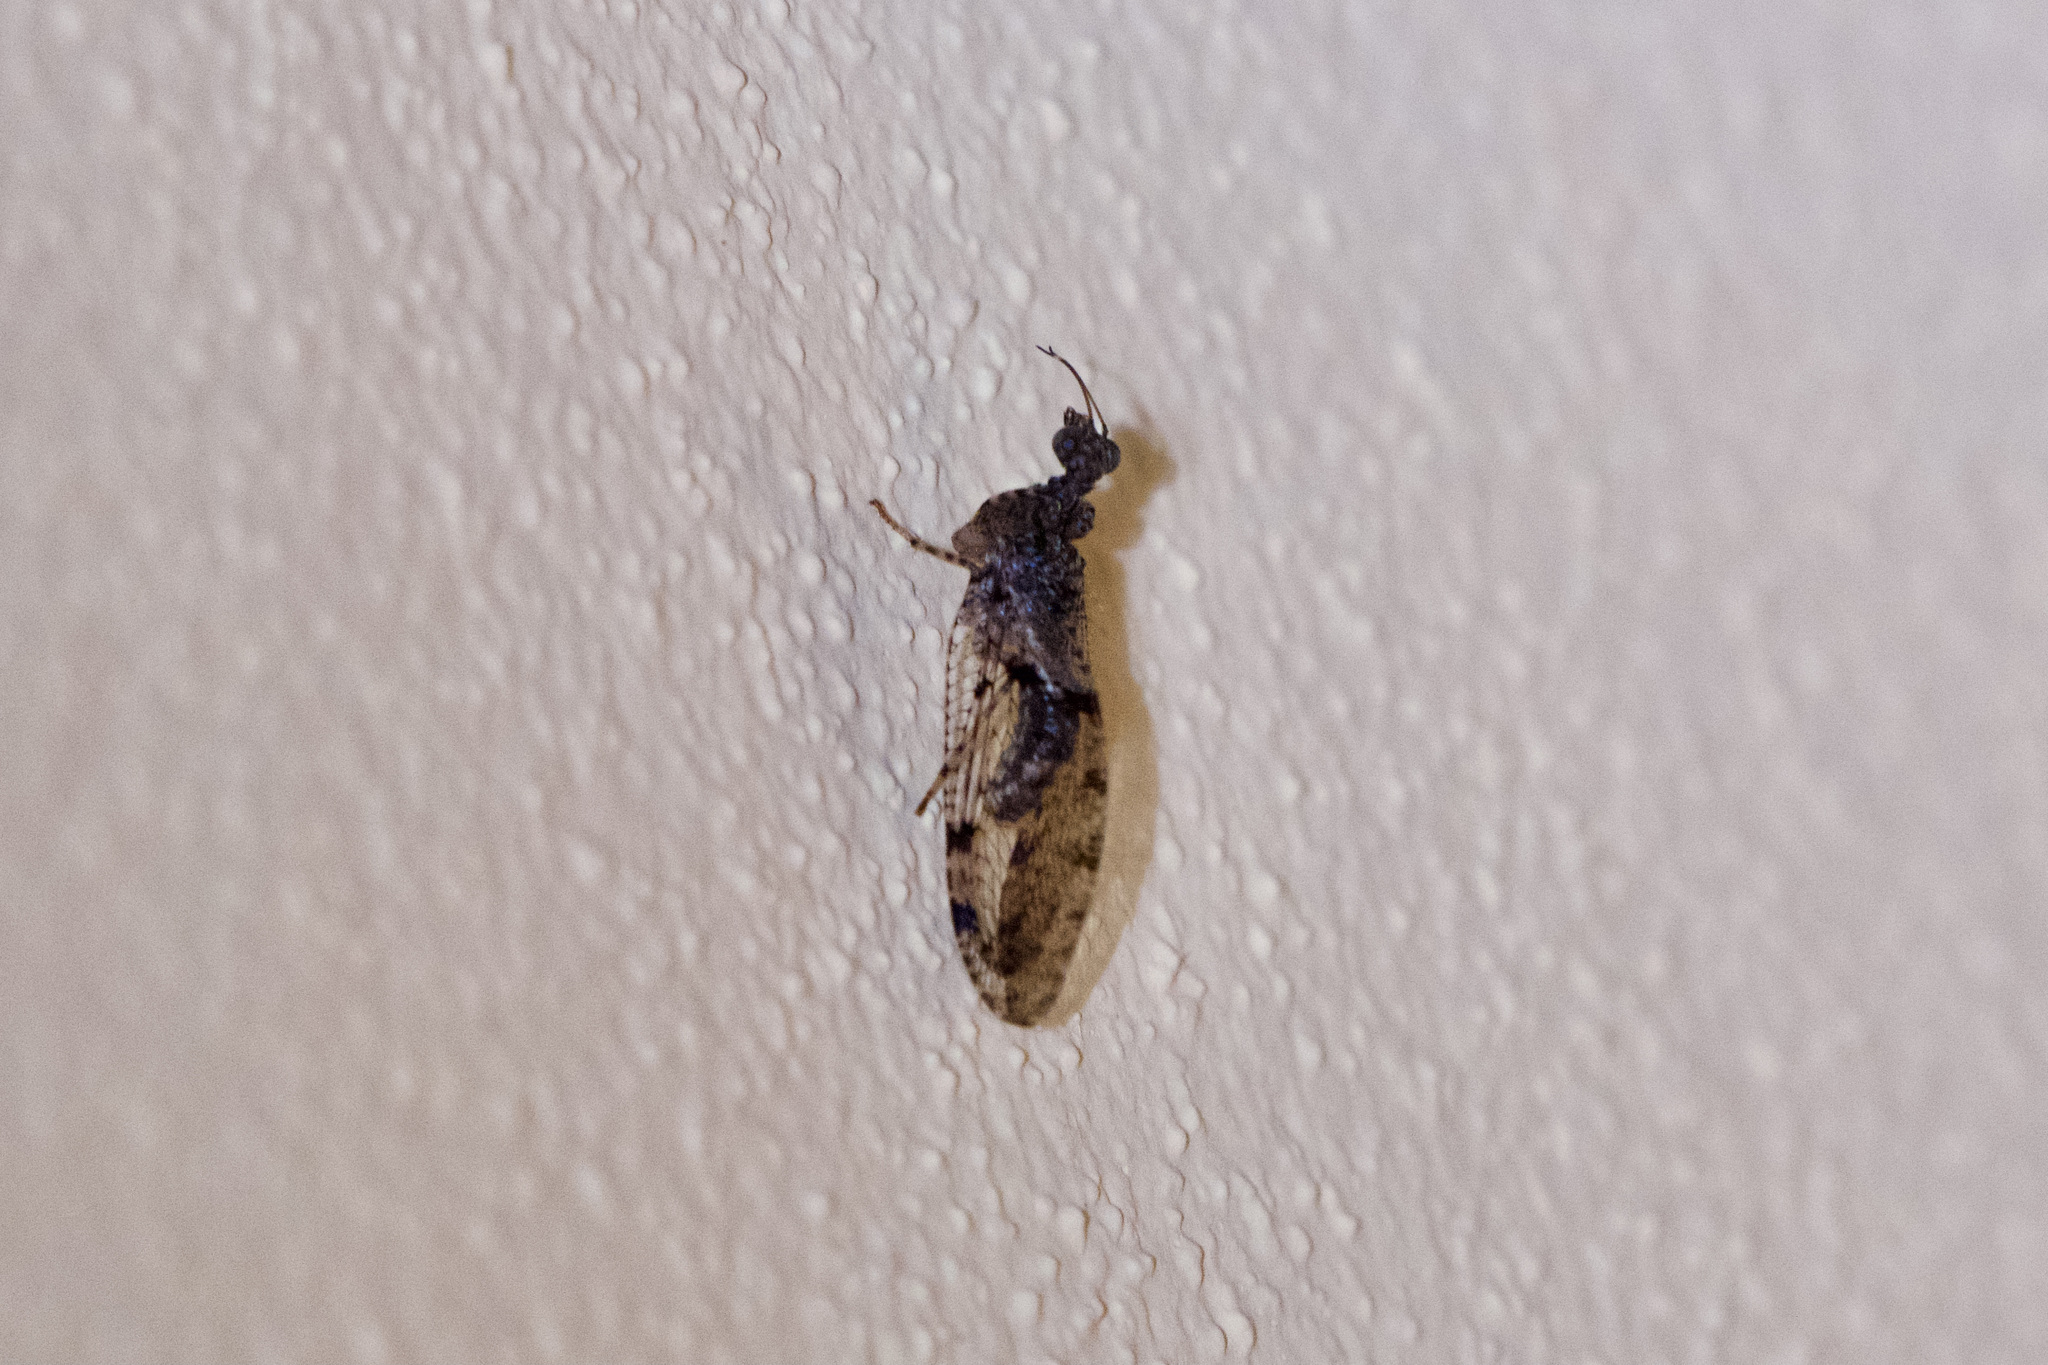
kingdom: Animalia
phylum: Arthropoda
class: Insecta
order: Neuroptera
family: Mantispidae
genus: Plega
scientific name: Plega hagenella
